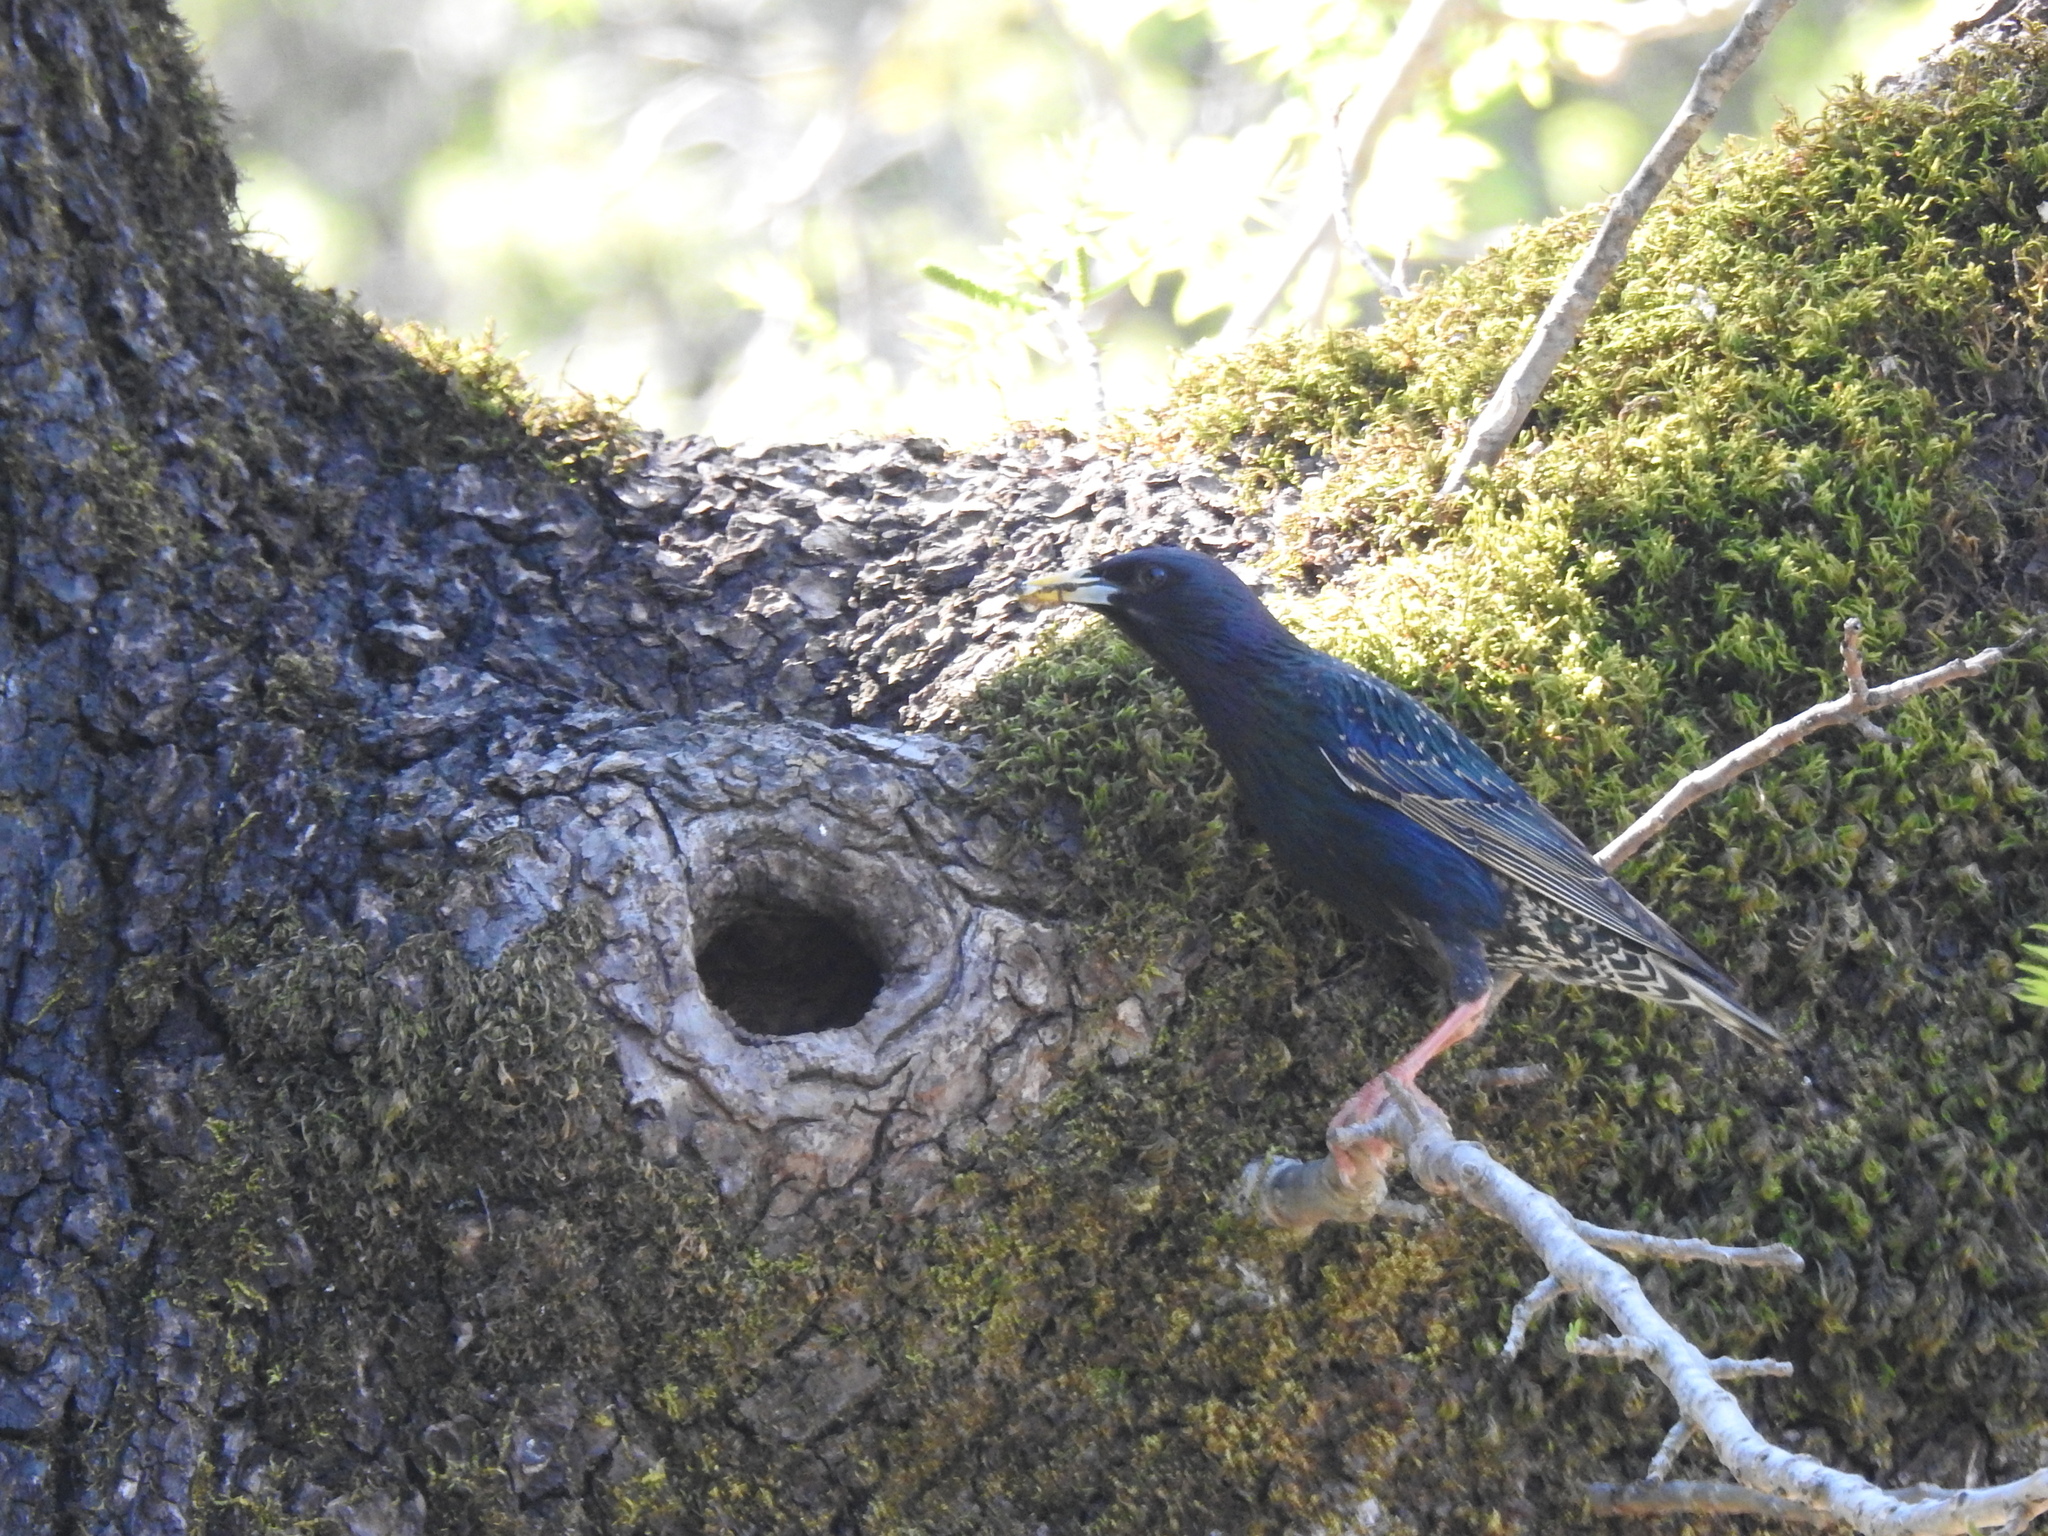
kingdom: Animalia
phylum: Chordata
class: Aves
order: Passeriformes
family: Sturnidae
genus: Sturnus
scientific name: Sturnus vulgaris
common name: Common starling
